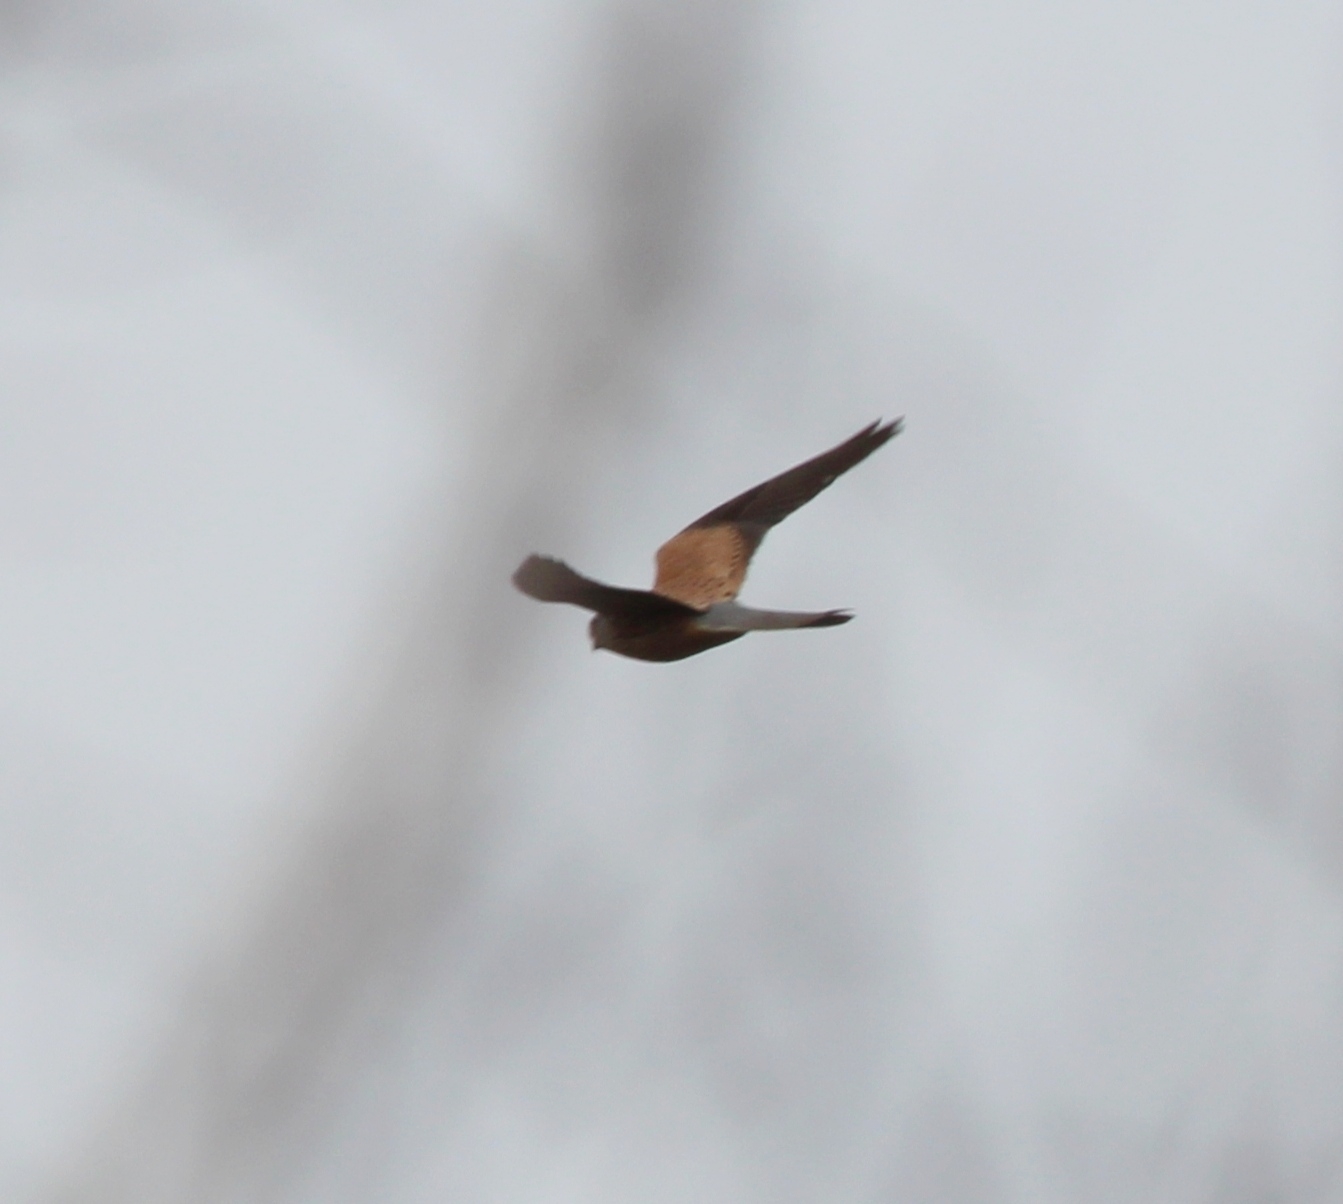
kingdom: Animalia
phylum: Chordata
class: Aves
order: Falconiformes
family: Falconidae
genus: Falco
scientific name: Falco tinnunculus
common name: Common kestrel
